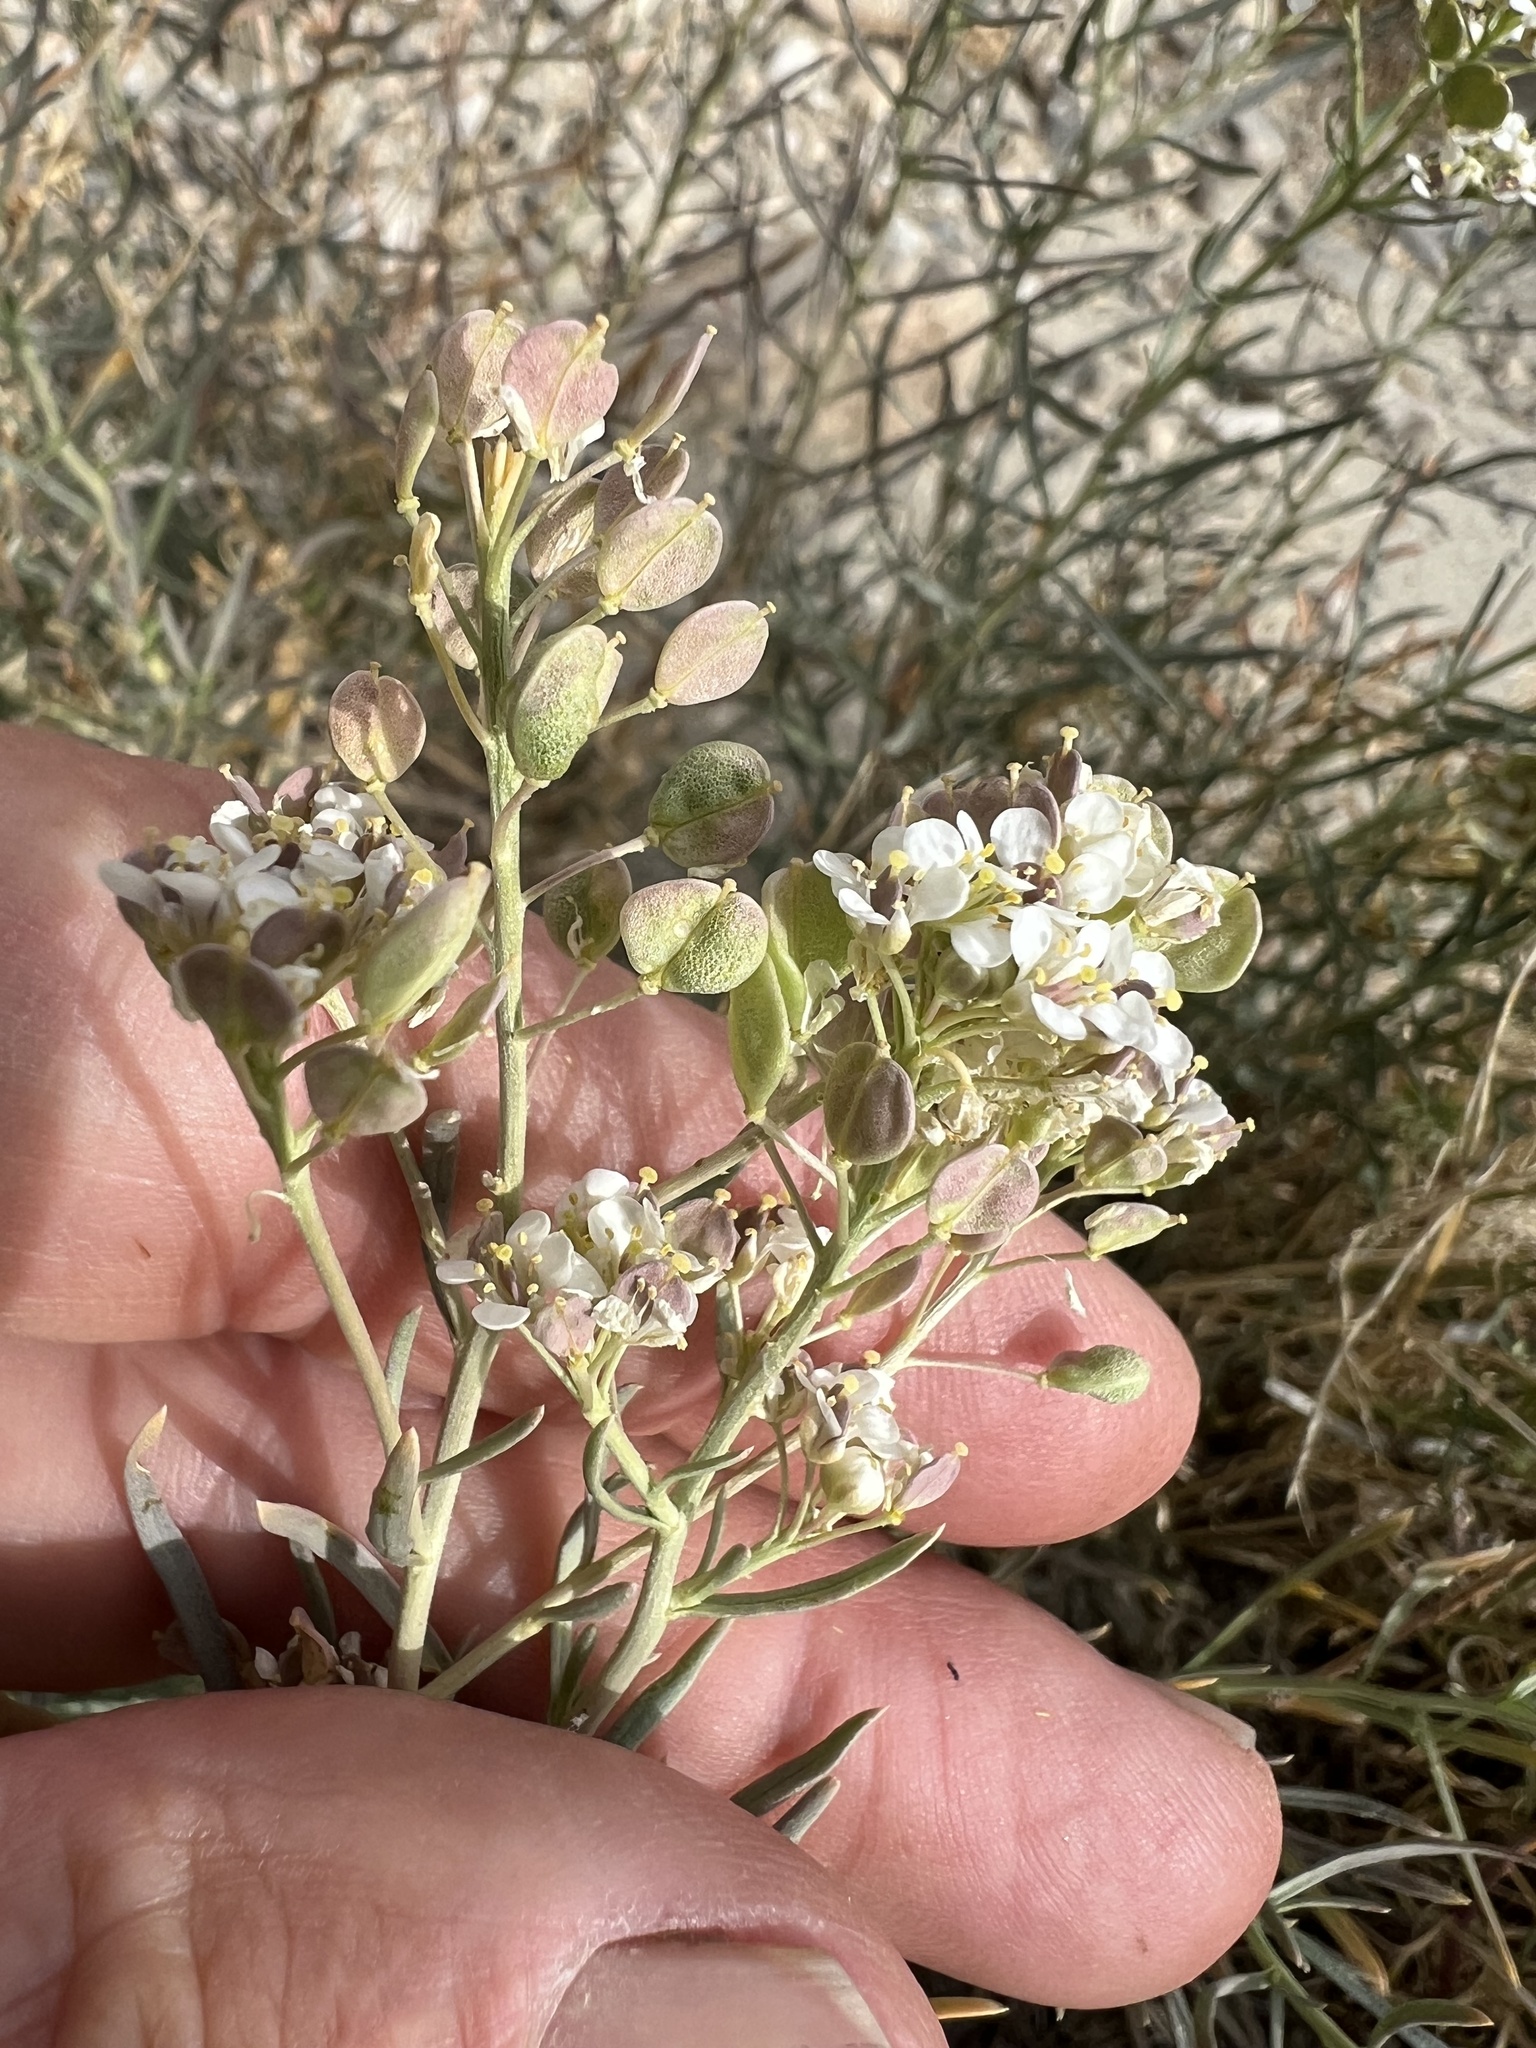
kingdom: Plantae
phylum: Tracheophyta
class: Magnoliopsida
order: Brassicales
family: Brassicaceae
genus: Lepidium
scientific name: Lepidium fremontii
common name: Fremont's pepperwort
